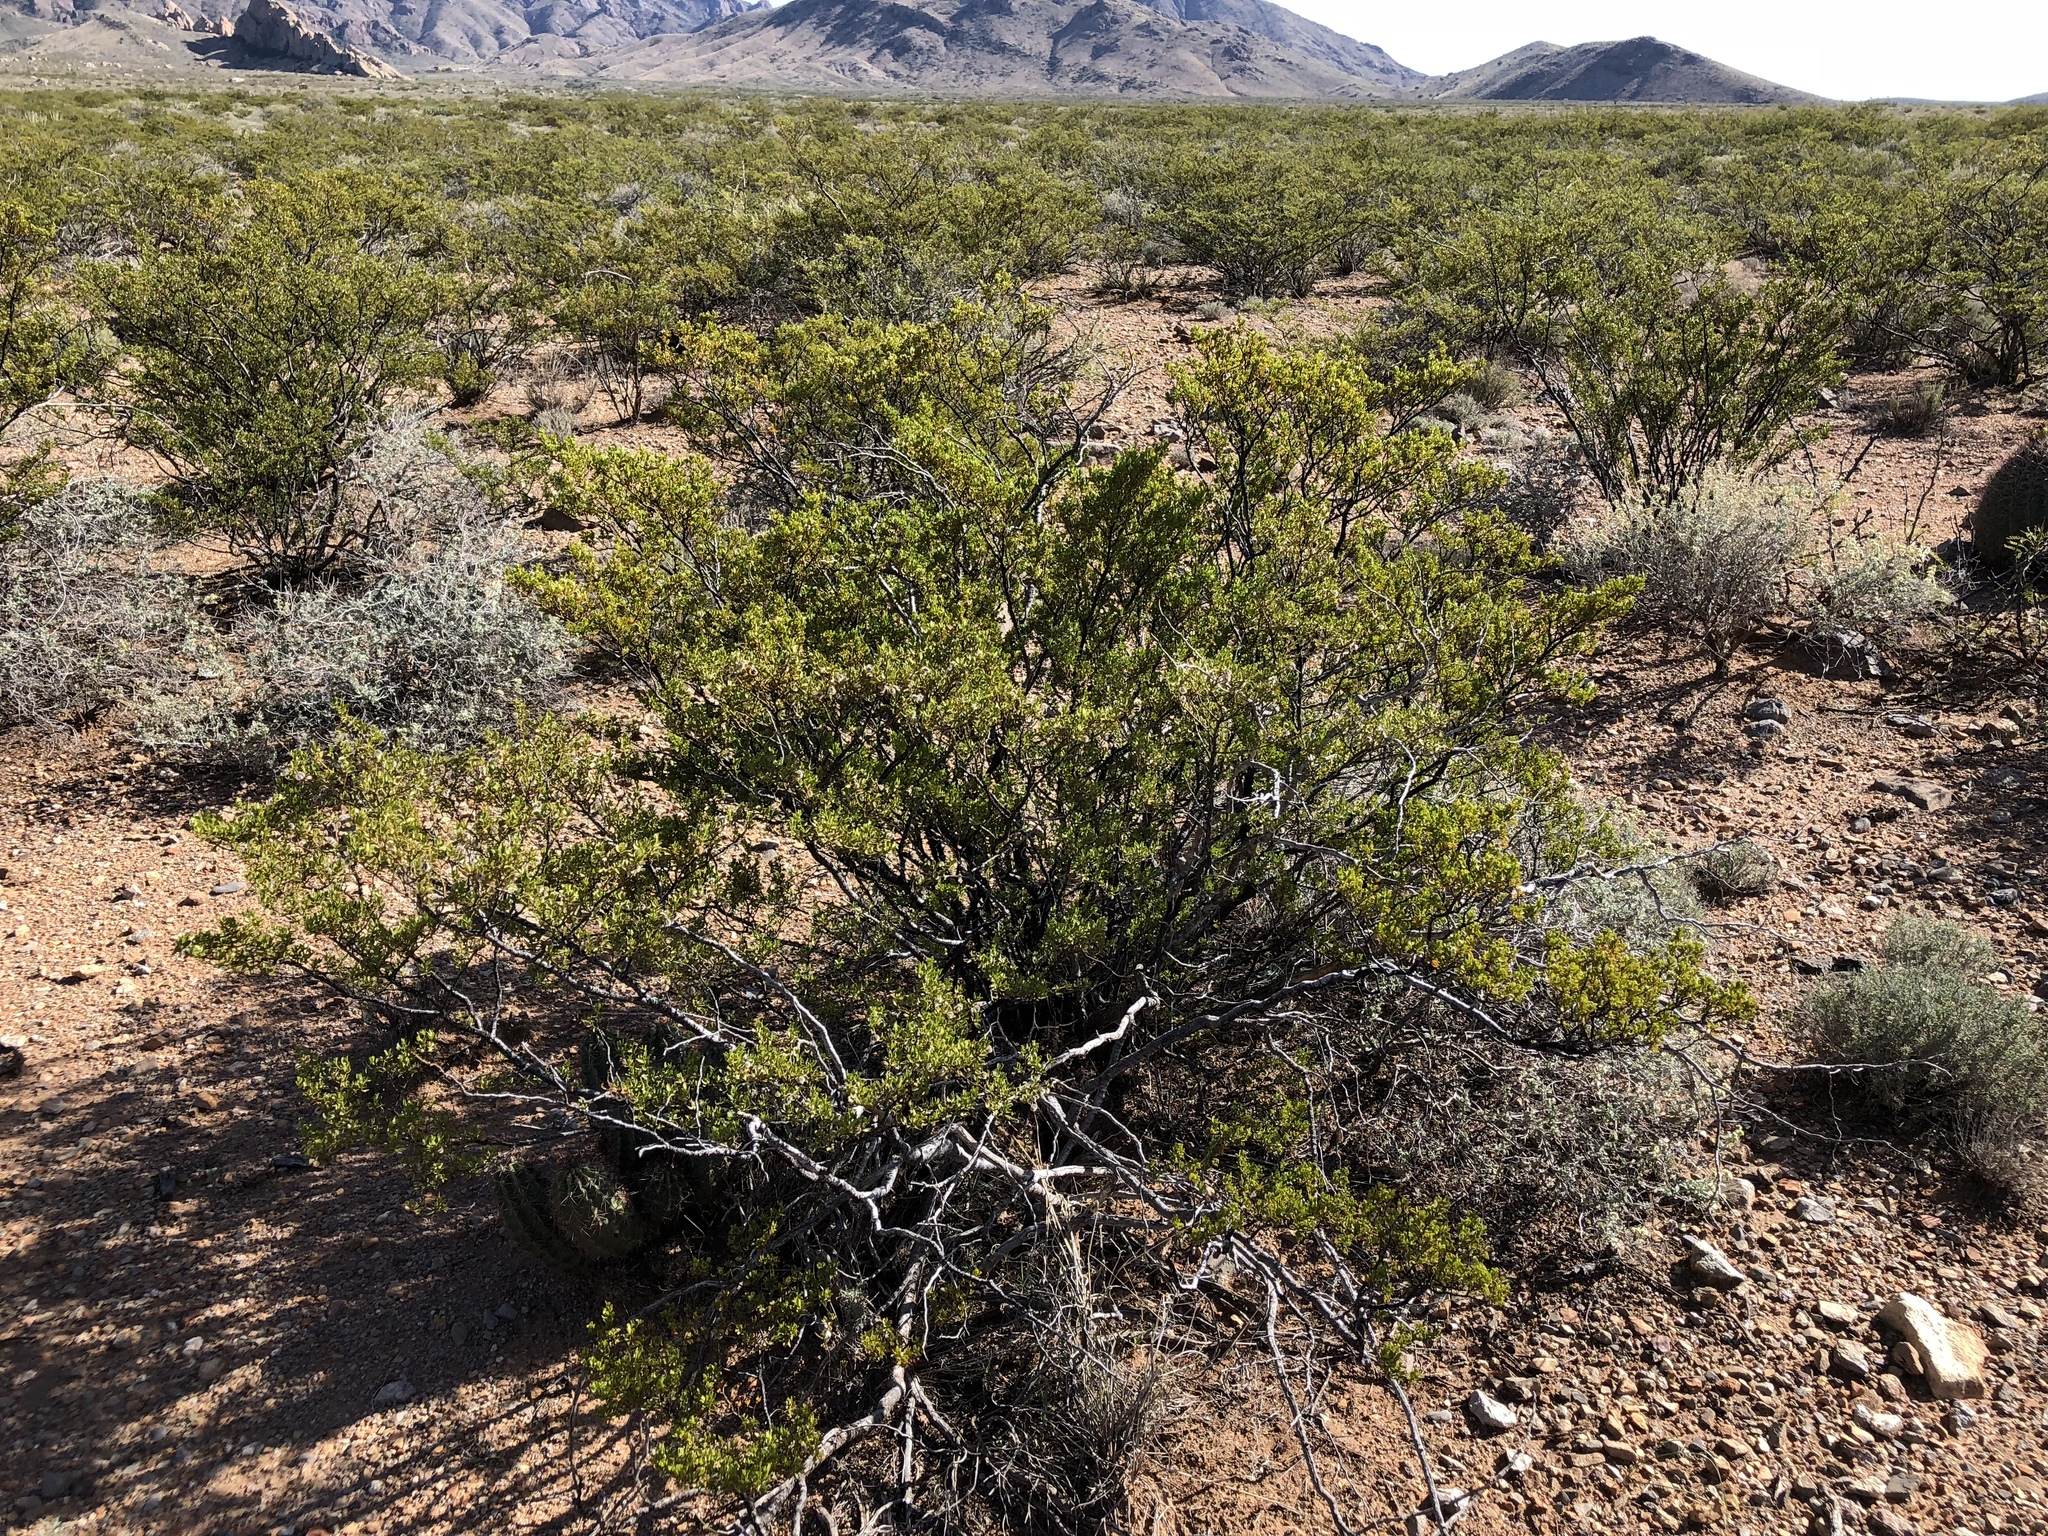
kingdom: Plantae
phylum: Tracheophyta
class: Magnoliopsida
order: Zygophyllales
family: Zygophyllaceae
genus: Larrea
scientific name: Larrea tridentata
